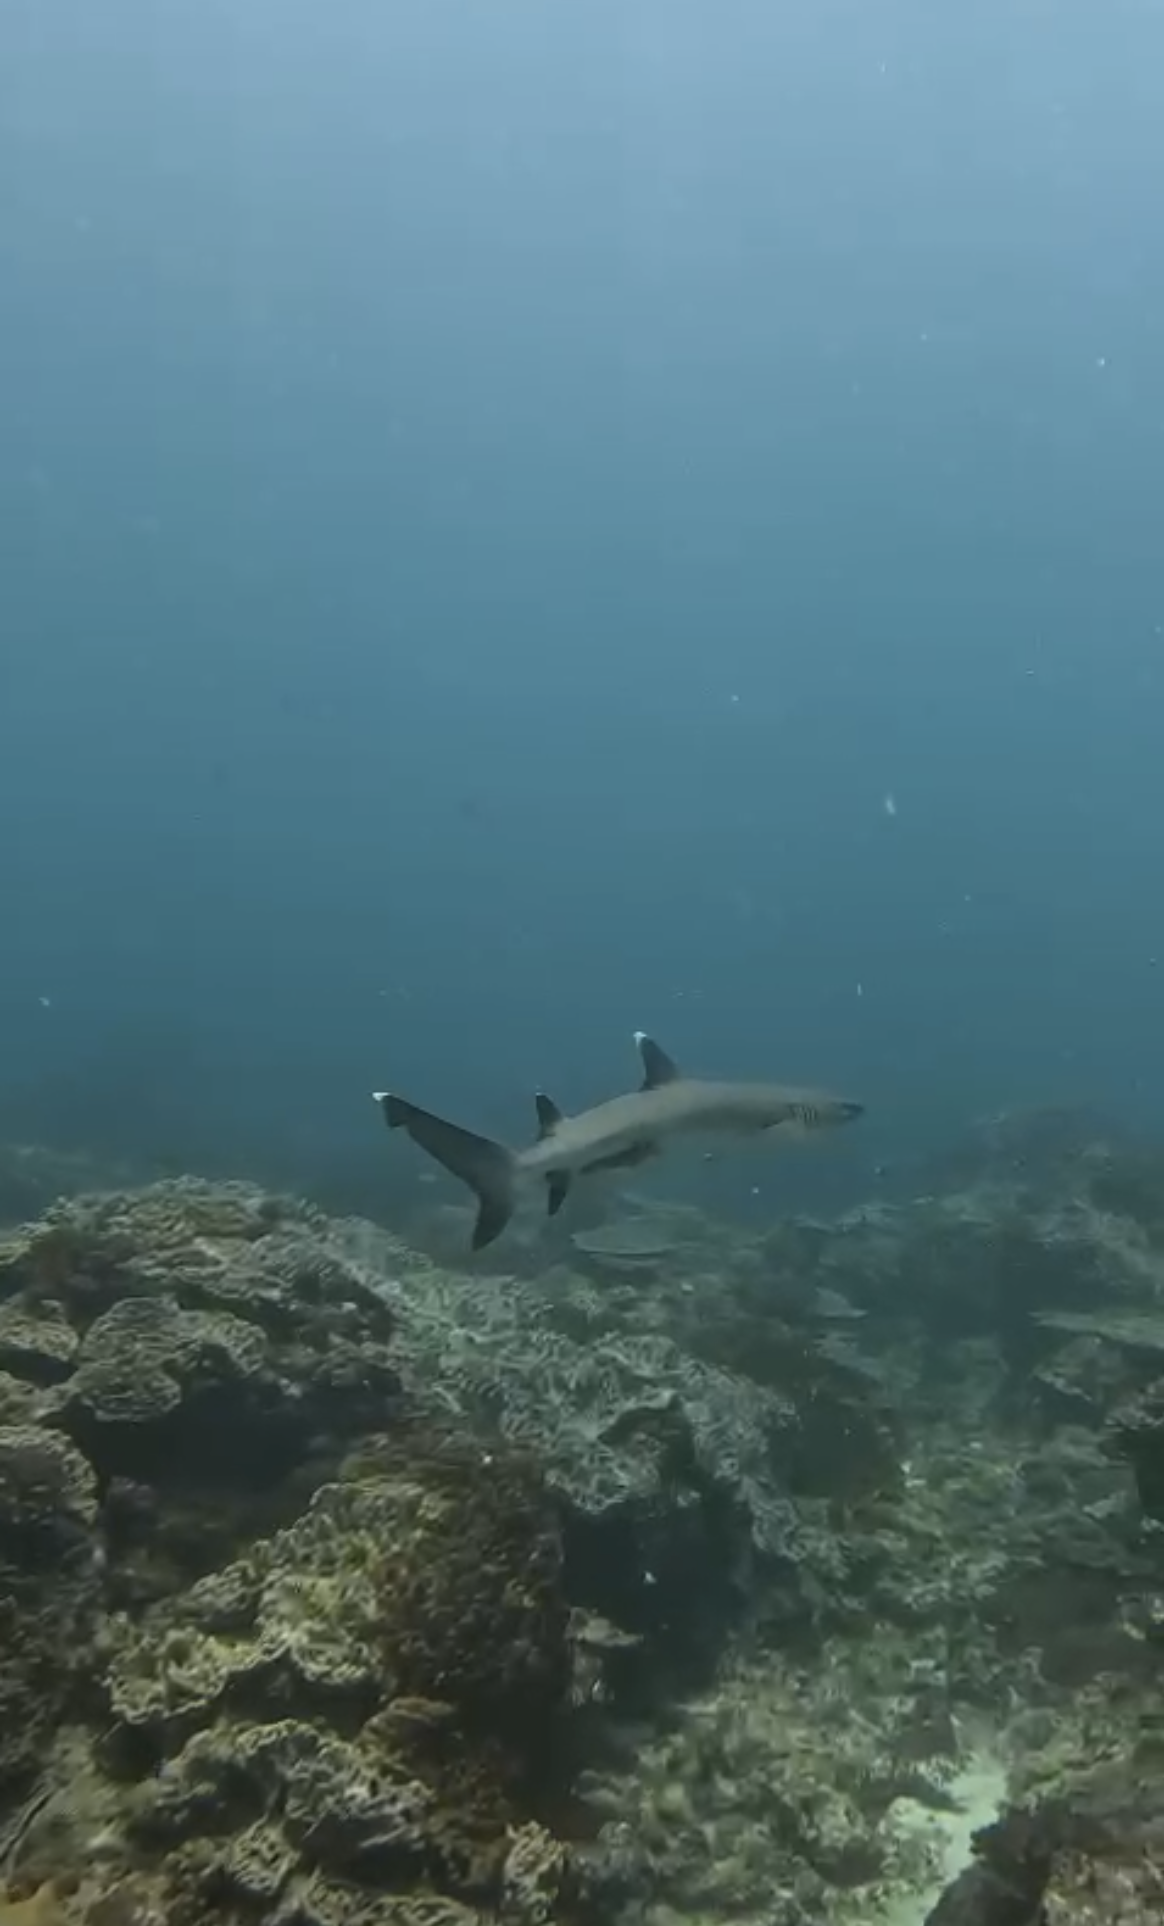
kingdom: Animalia
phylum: Chordata
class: Elasmobranchii
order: Carcharhiniformes
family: Carcharhinidae
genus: Triaenodon
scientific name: Triaenodon obesus
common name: Whitetip reef shark
